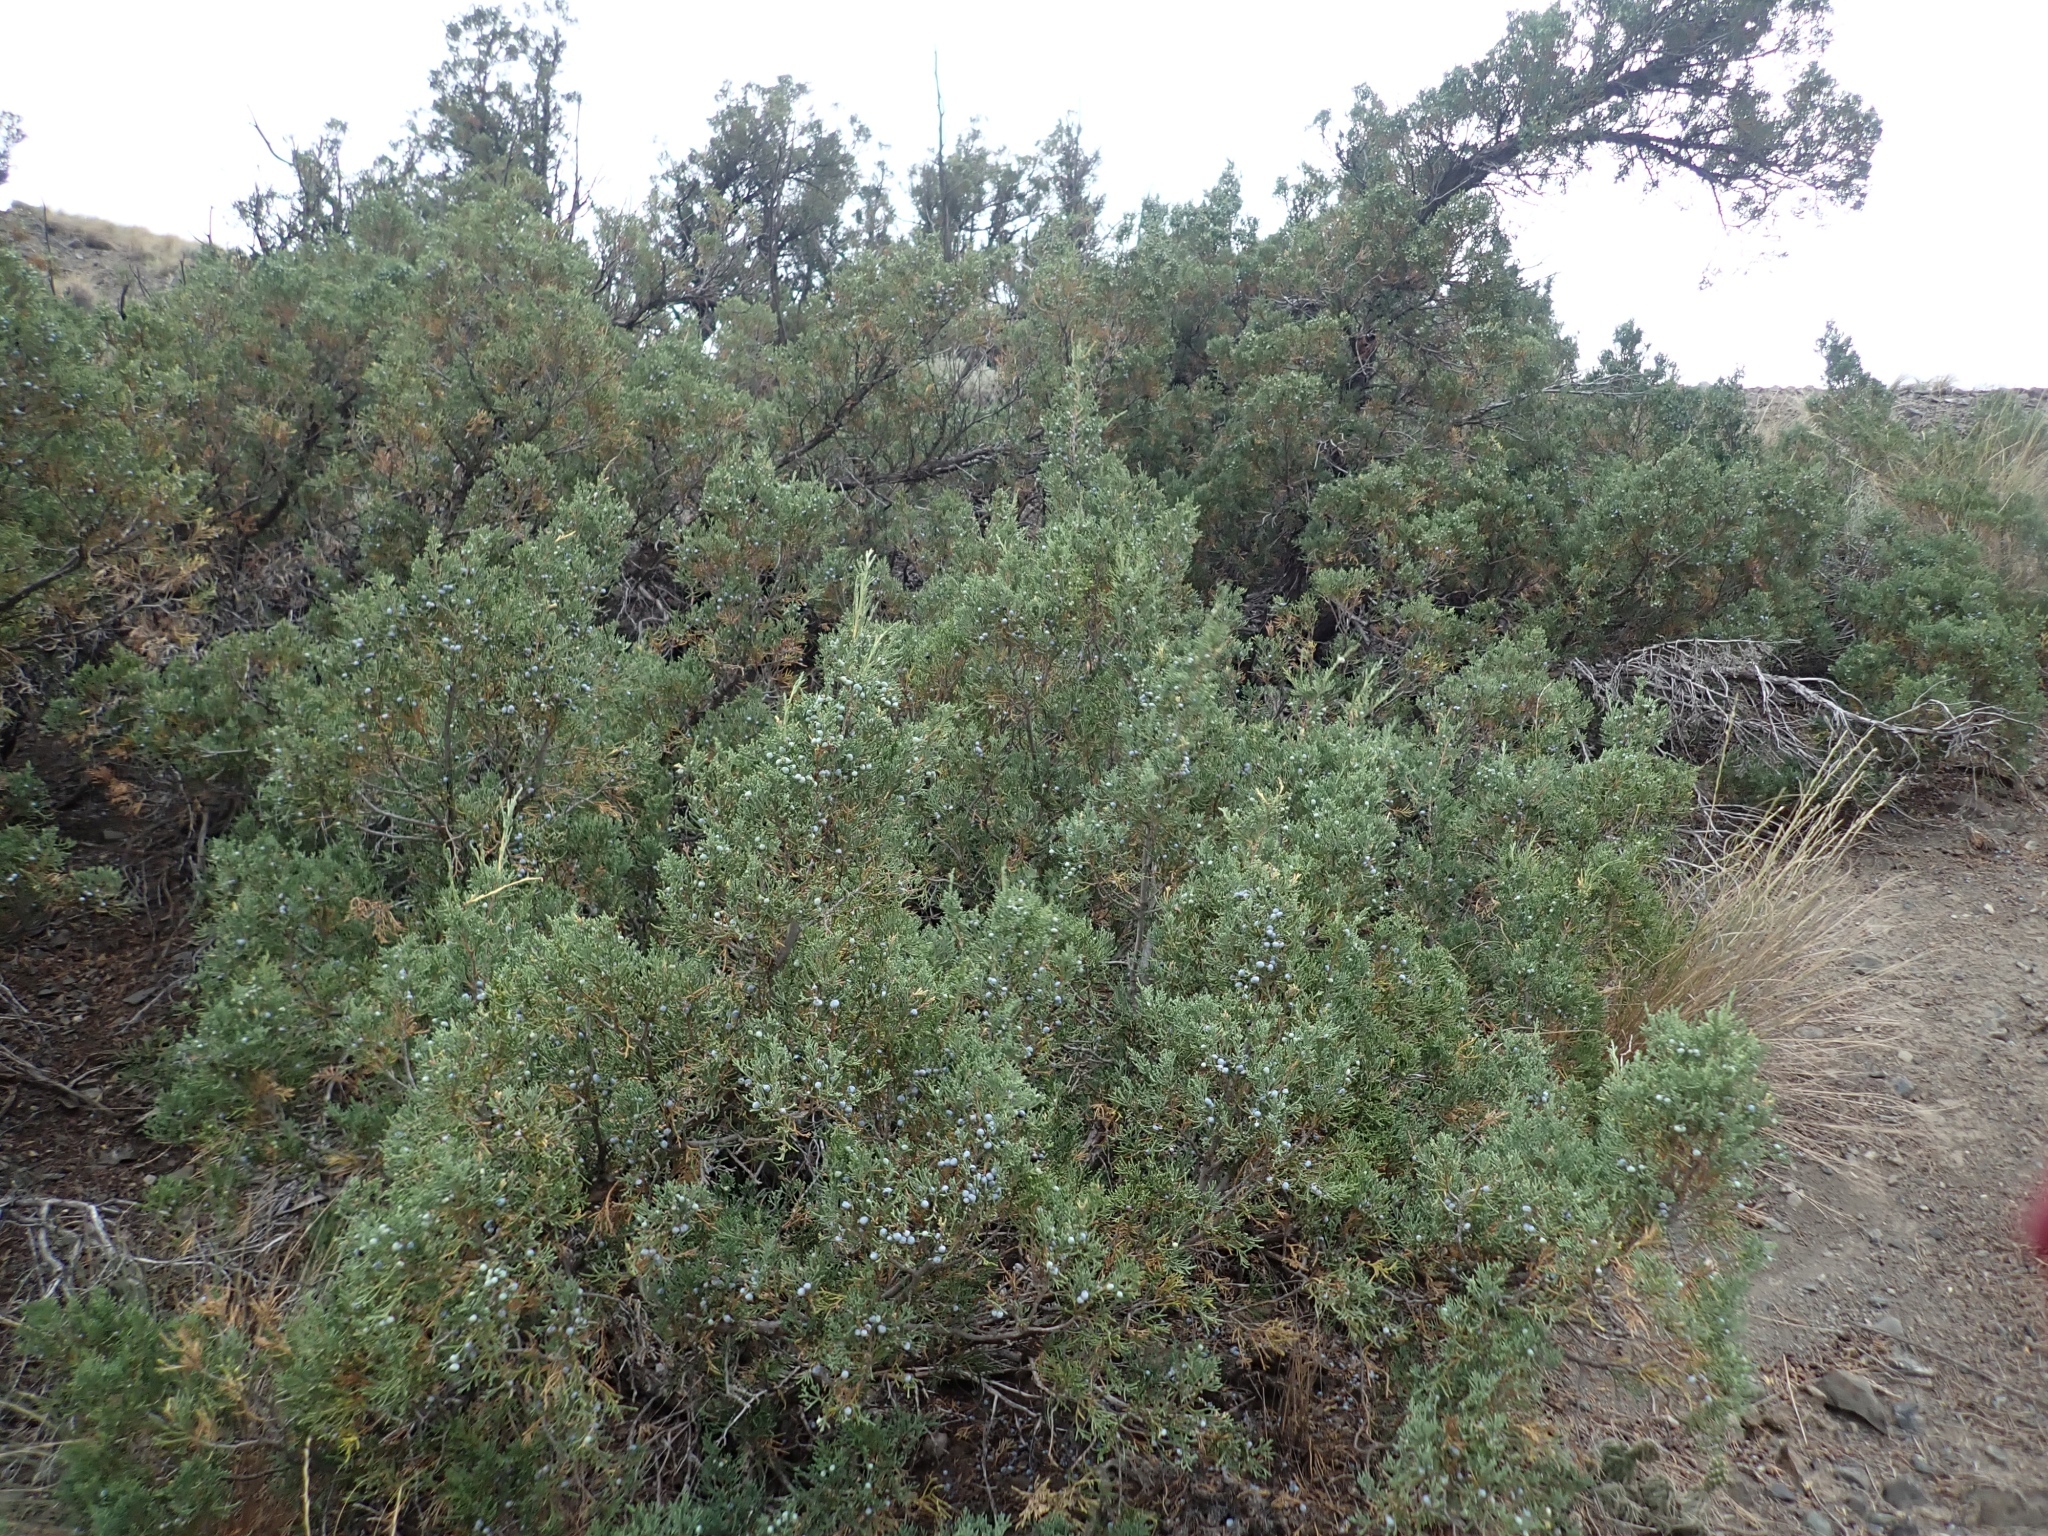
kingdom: Plantae
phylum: Tracheophyta
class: Pinopsida
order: Pinales
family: Cupressaceae
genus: Juniperus
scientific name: Juniperus scopulorum
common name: Rocky mountain juniper
